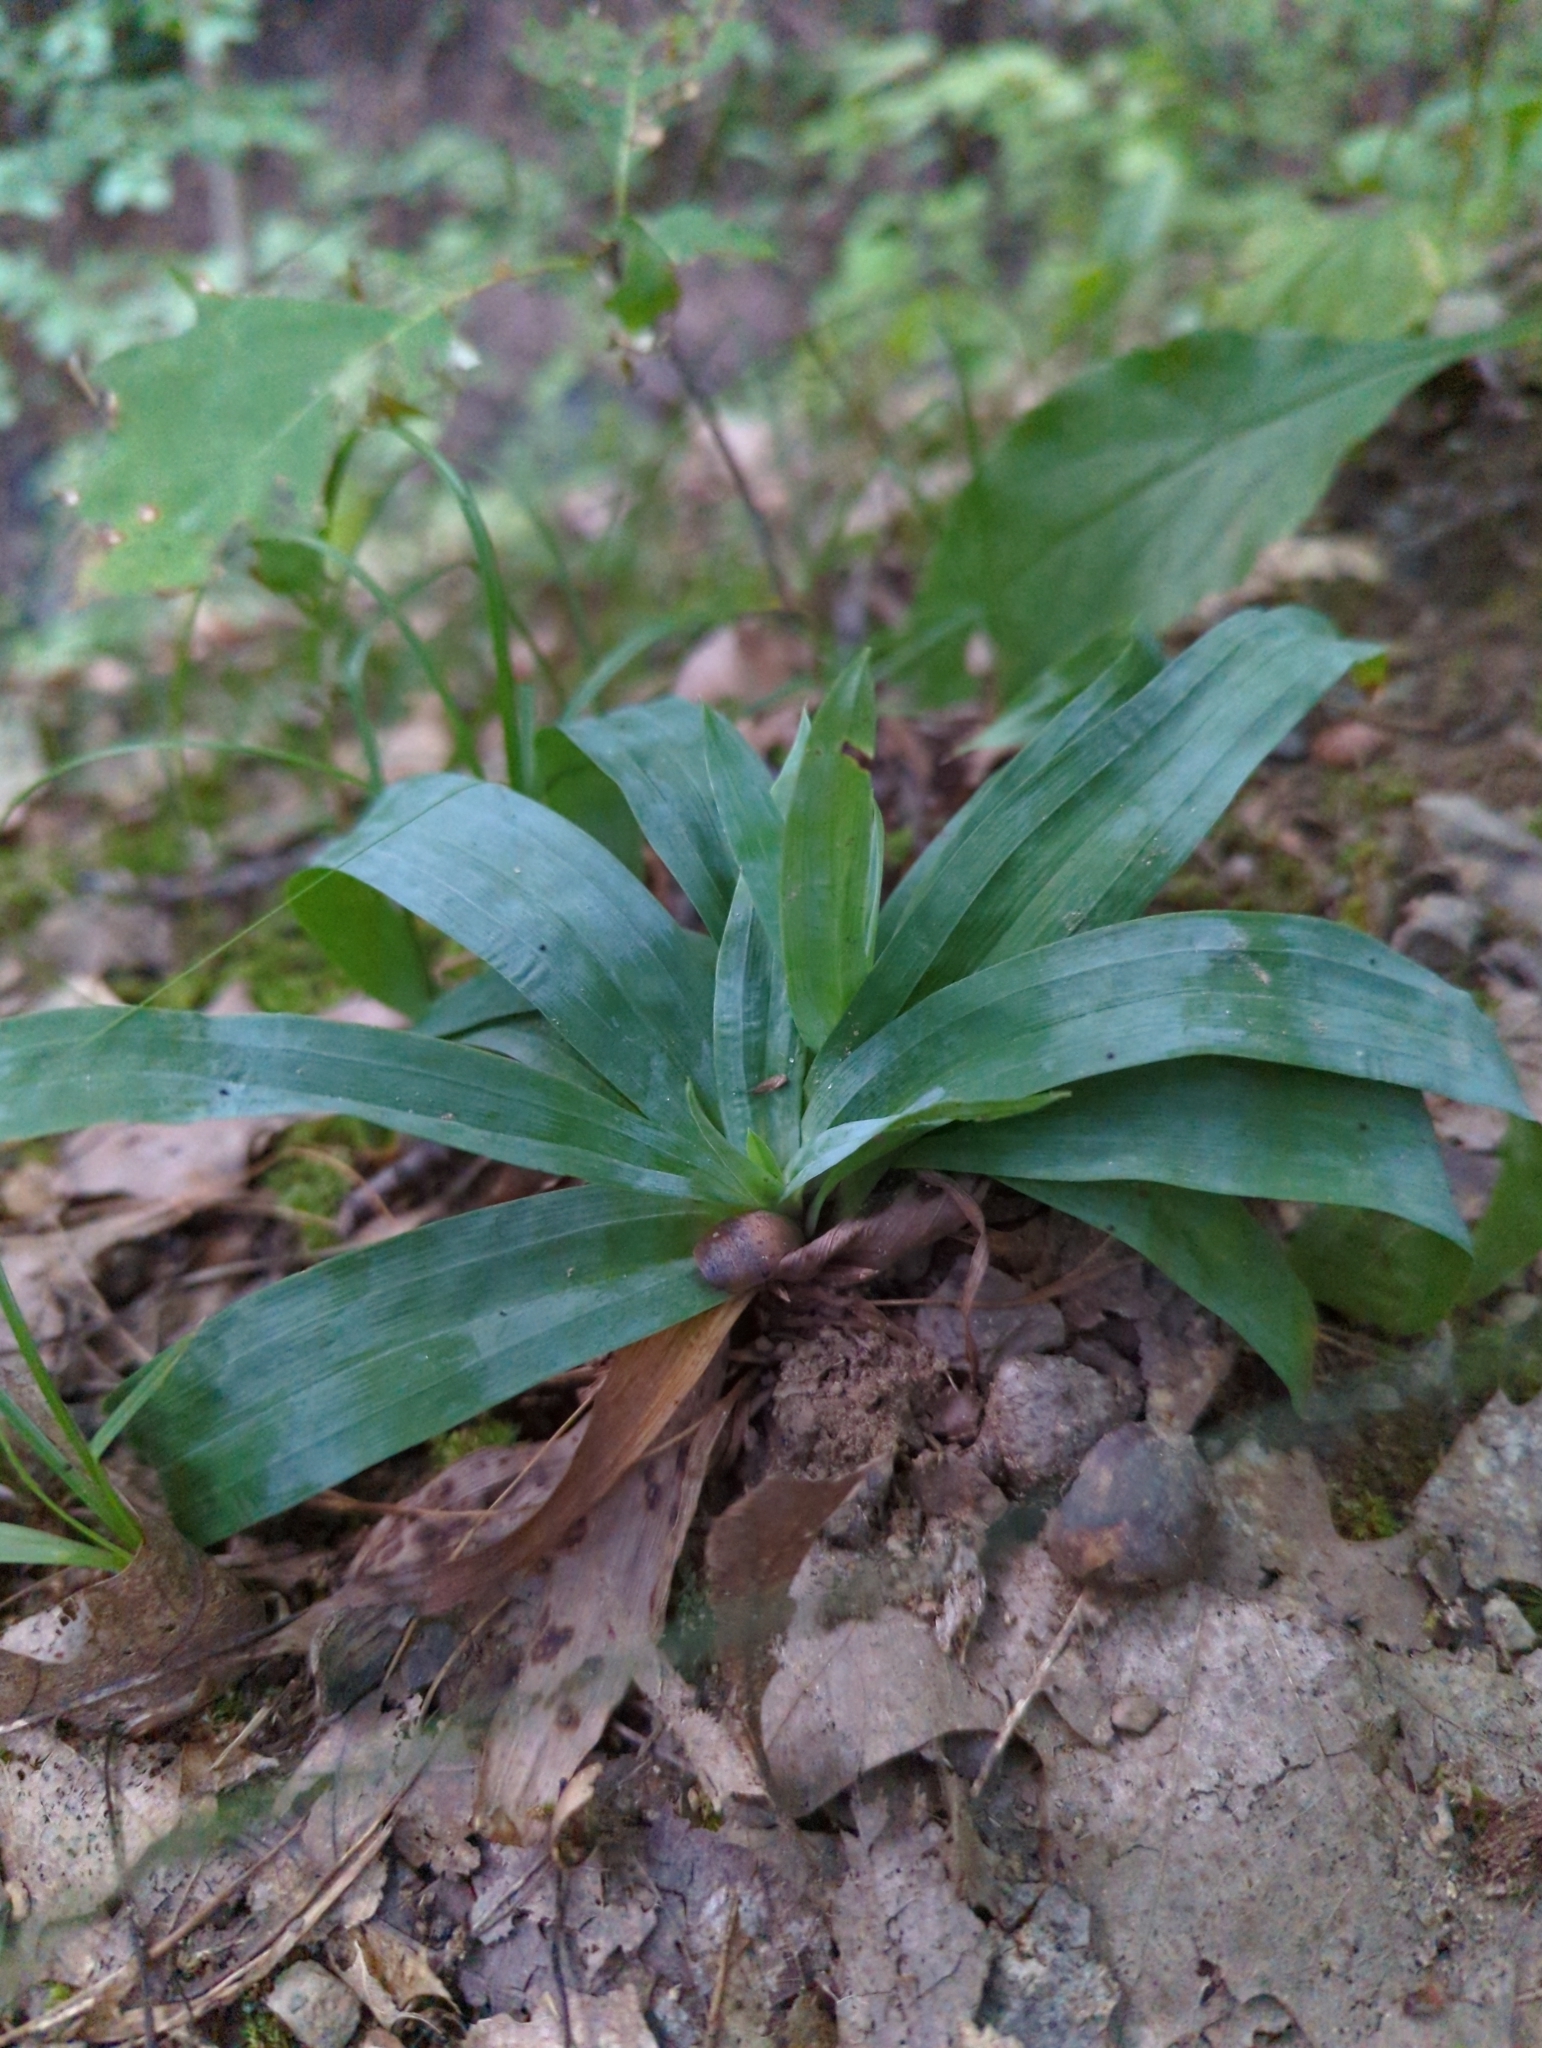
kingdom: Plantae
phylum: Tracheophyta
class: Liliopsida
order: Poales
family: Cyperaceae
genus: Carex
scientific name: Carex platyphylla
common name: Broad-leaved sedge
